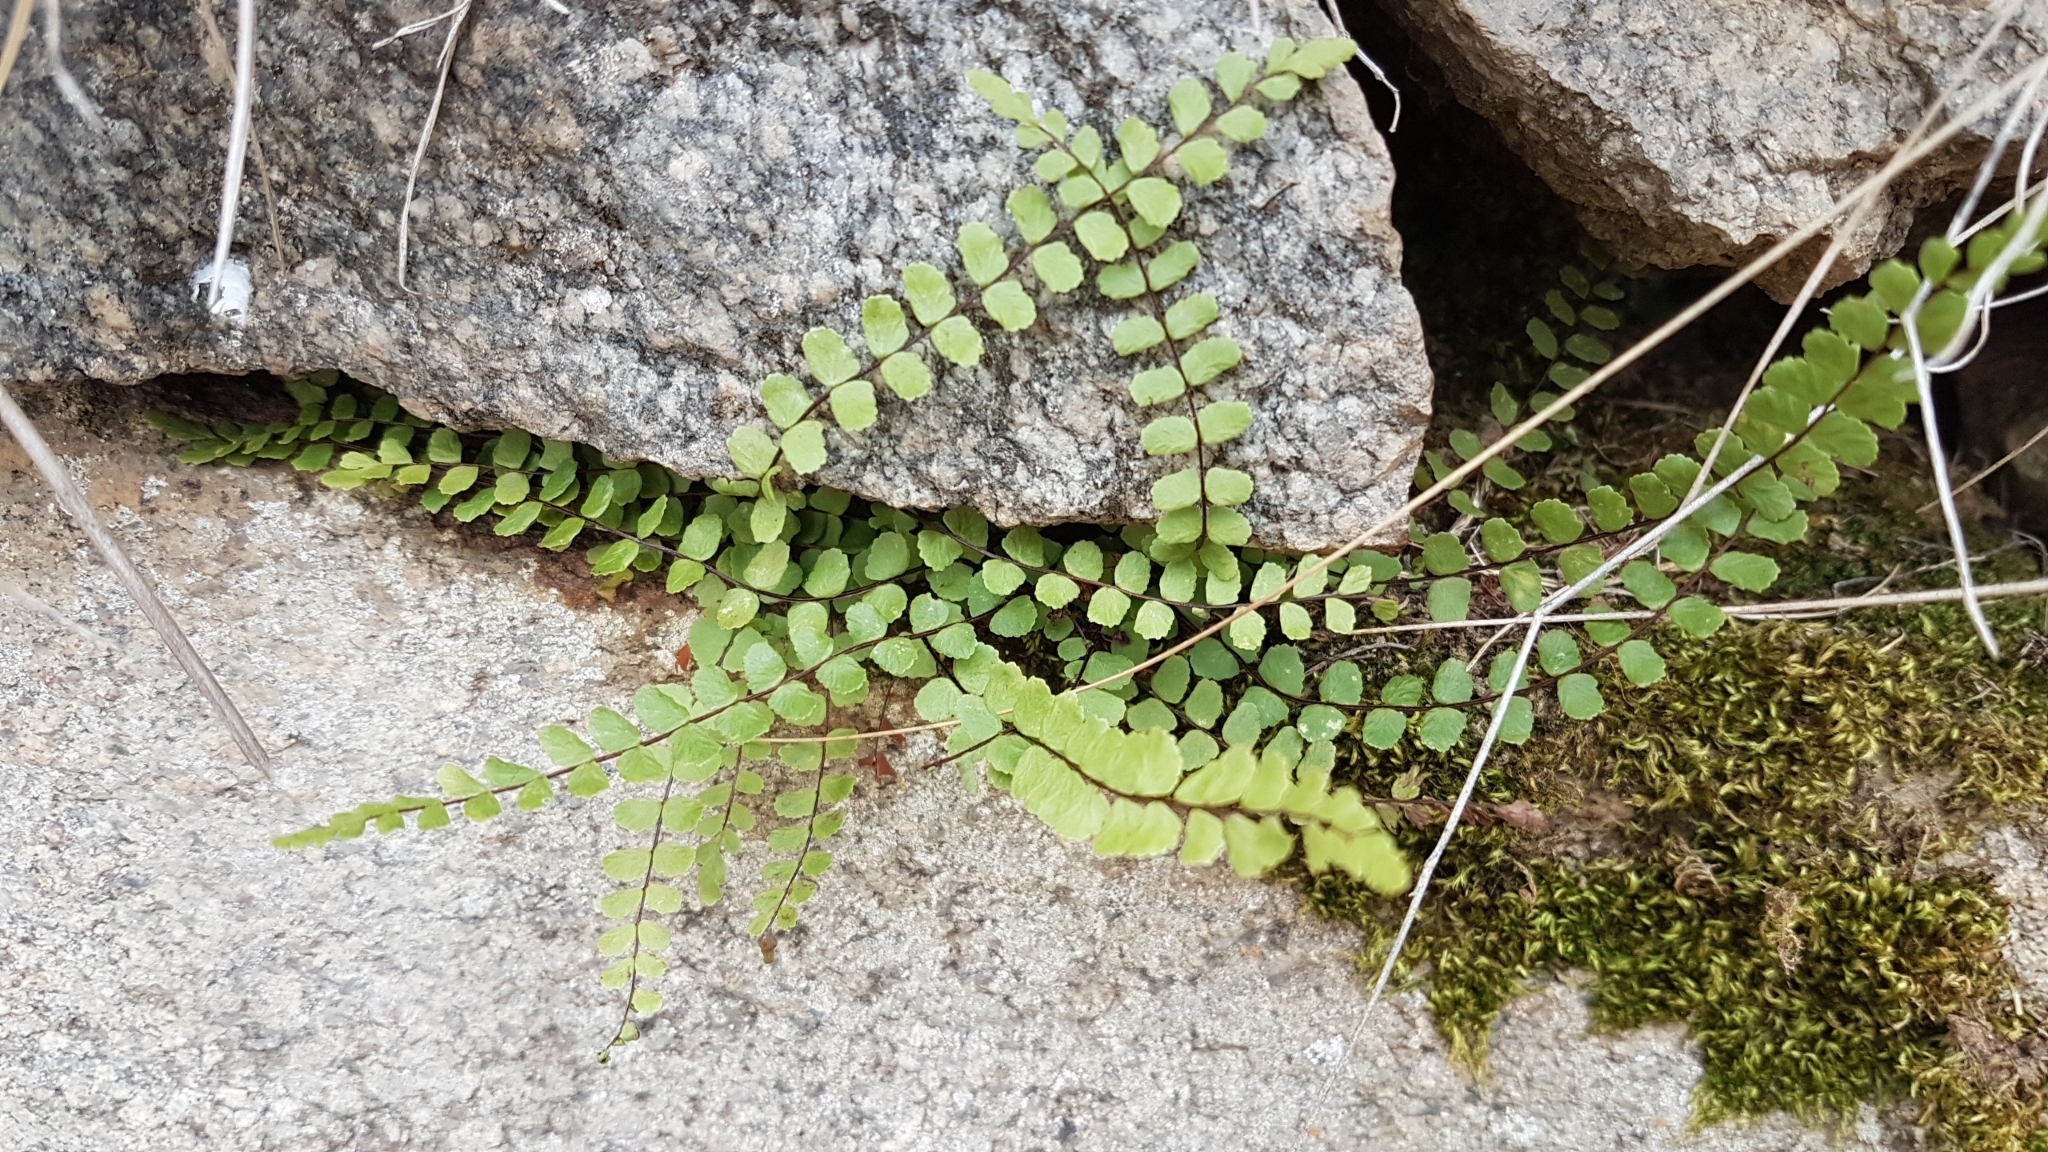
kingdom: Plantae
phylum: Tracheophyta
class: Polypodiopsida
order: Polypodiales
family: Aspleniaceae
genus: Asplenium
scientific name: Asplenium trichomanes
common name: Maidenhair spleenwort
